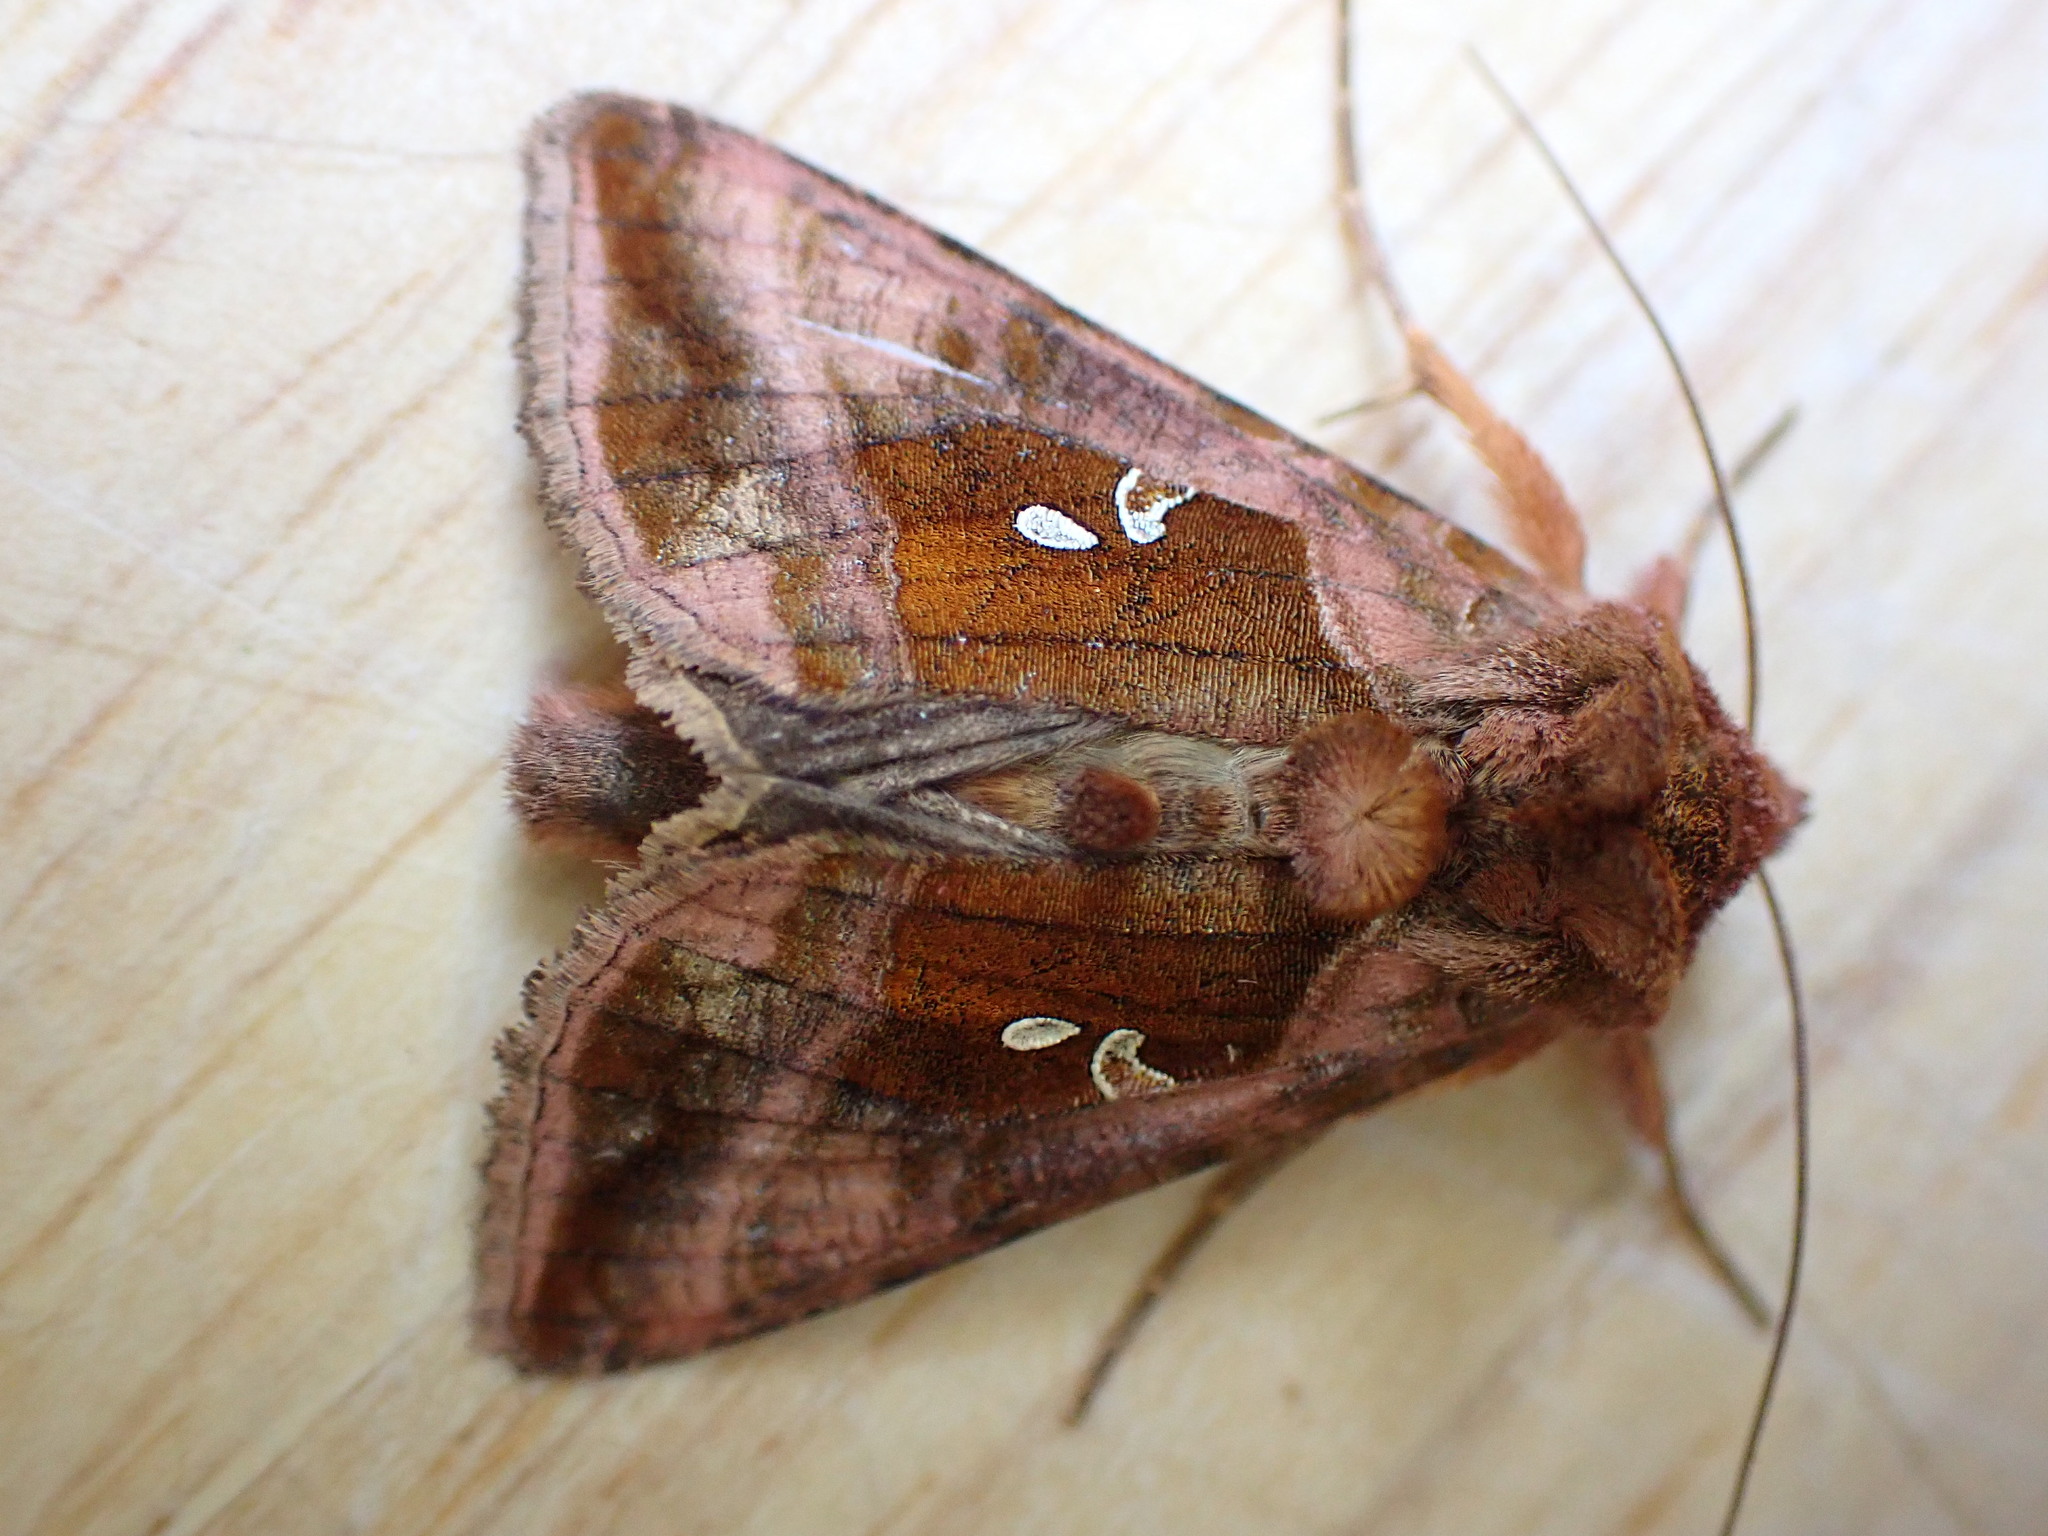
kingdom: Animalia
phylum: Arthropoda
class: Insecta
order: Lepidoptera
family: Noctuidae
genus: Autographa
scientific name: Autographa jota
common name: Plain golden y
